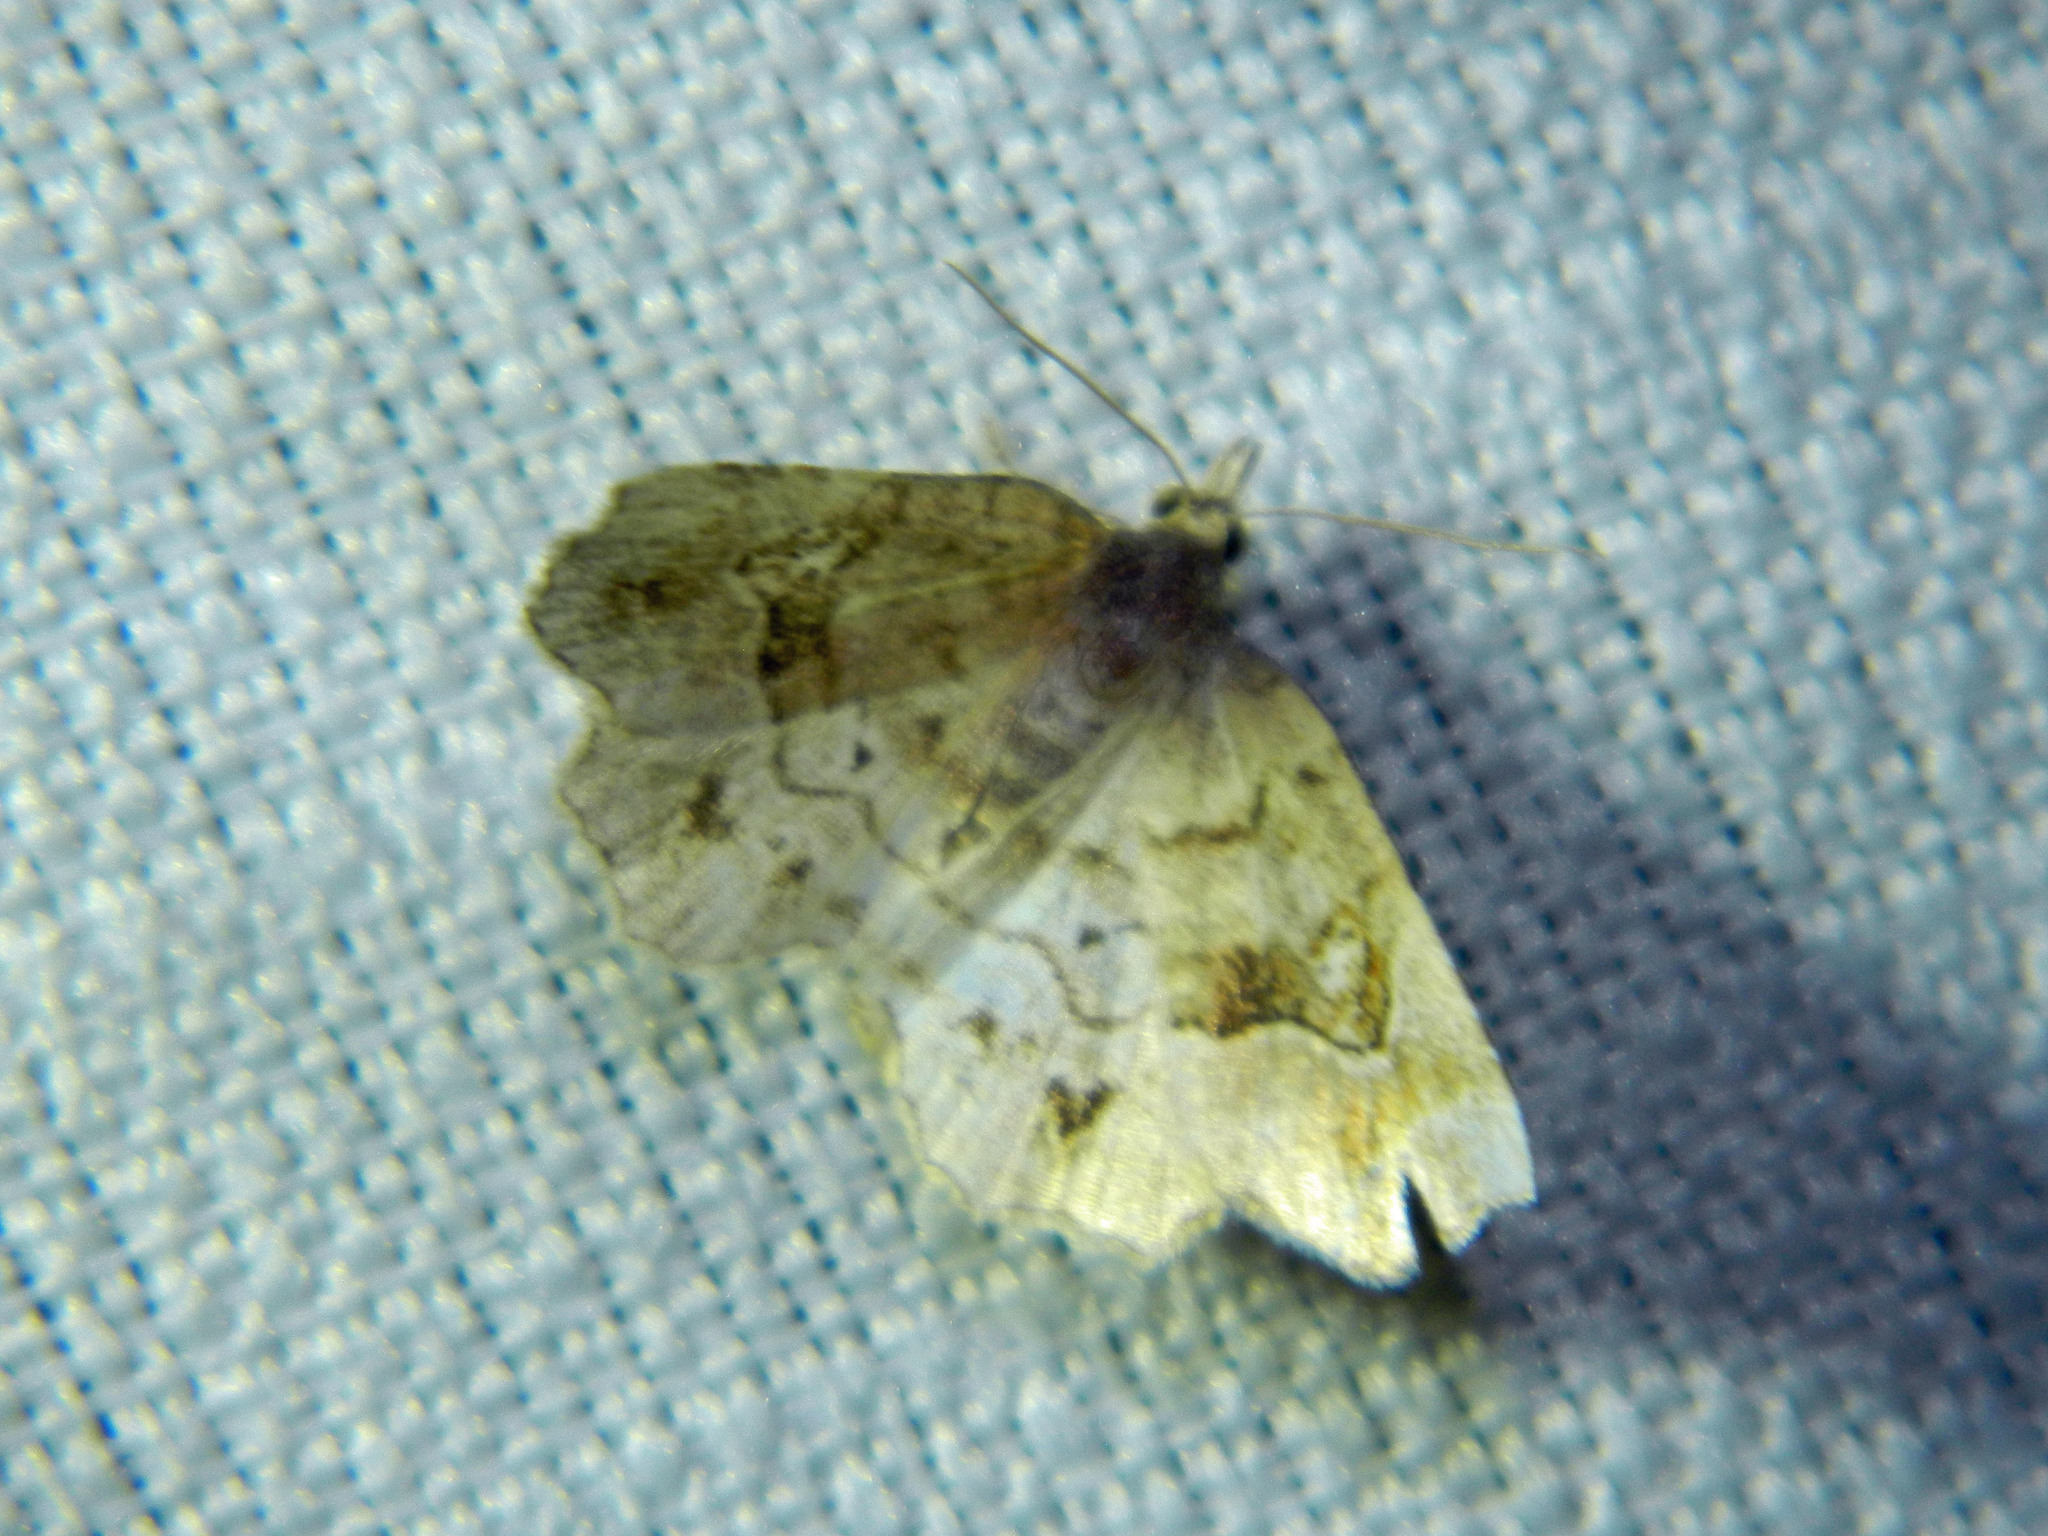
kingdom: Animalia
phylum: Arthropoda
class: Insecta
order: Lepidoptera
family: Erebidae
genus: Pangrapta
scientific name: Pangrapta decoralis
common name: Decorated owlet
